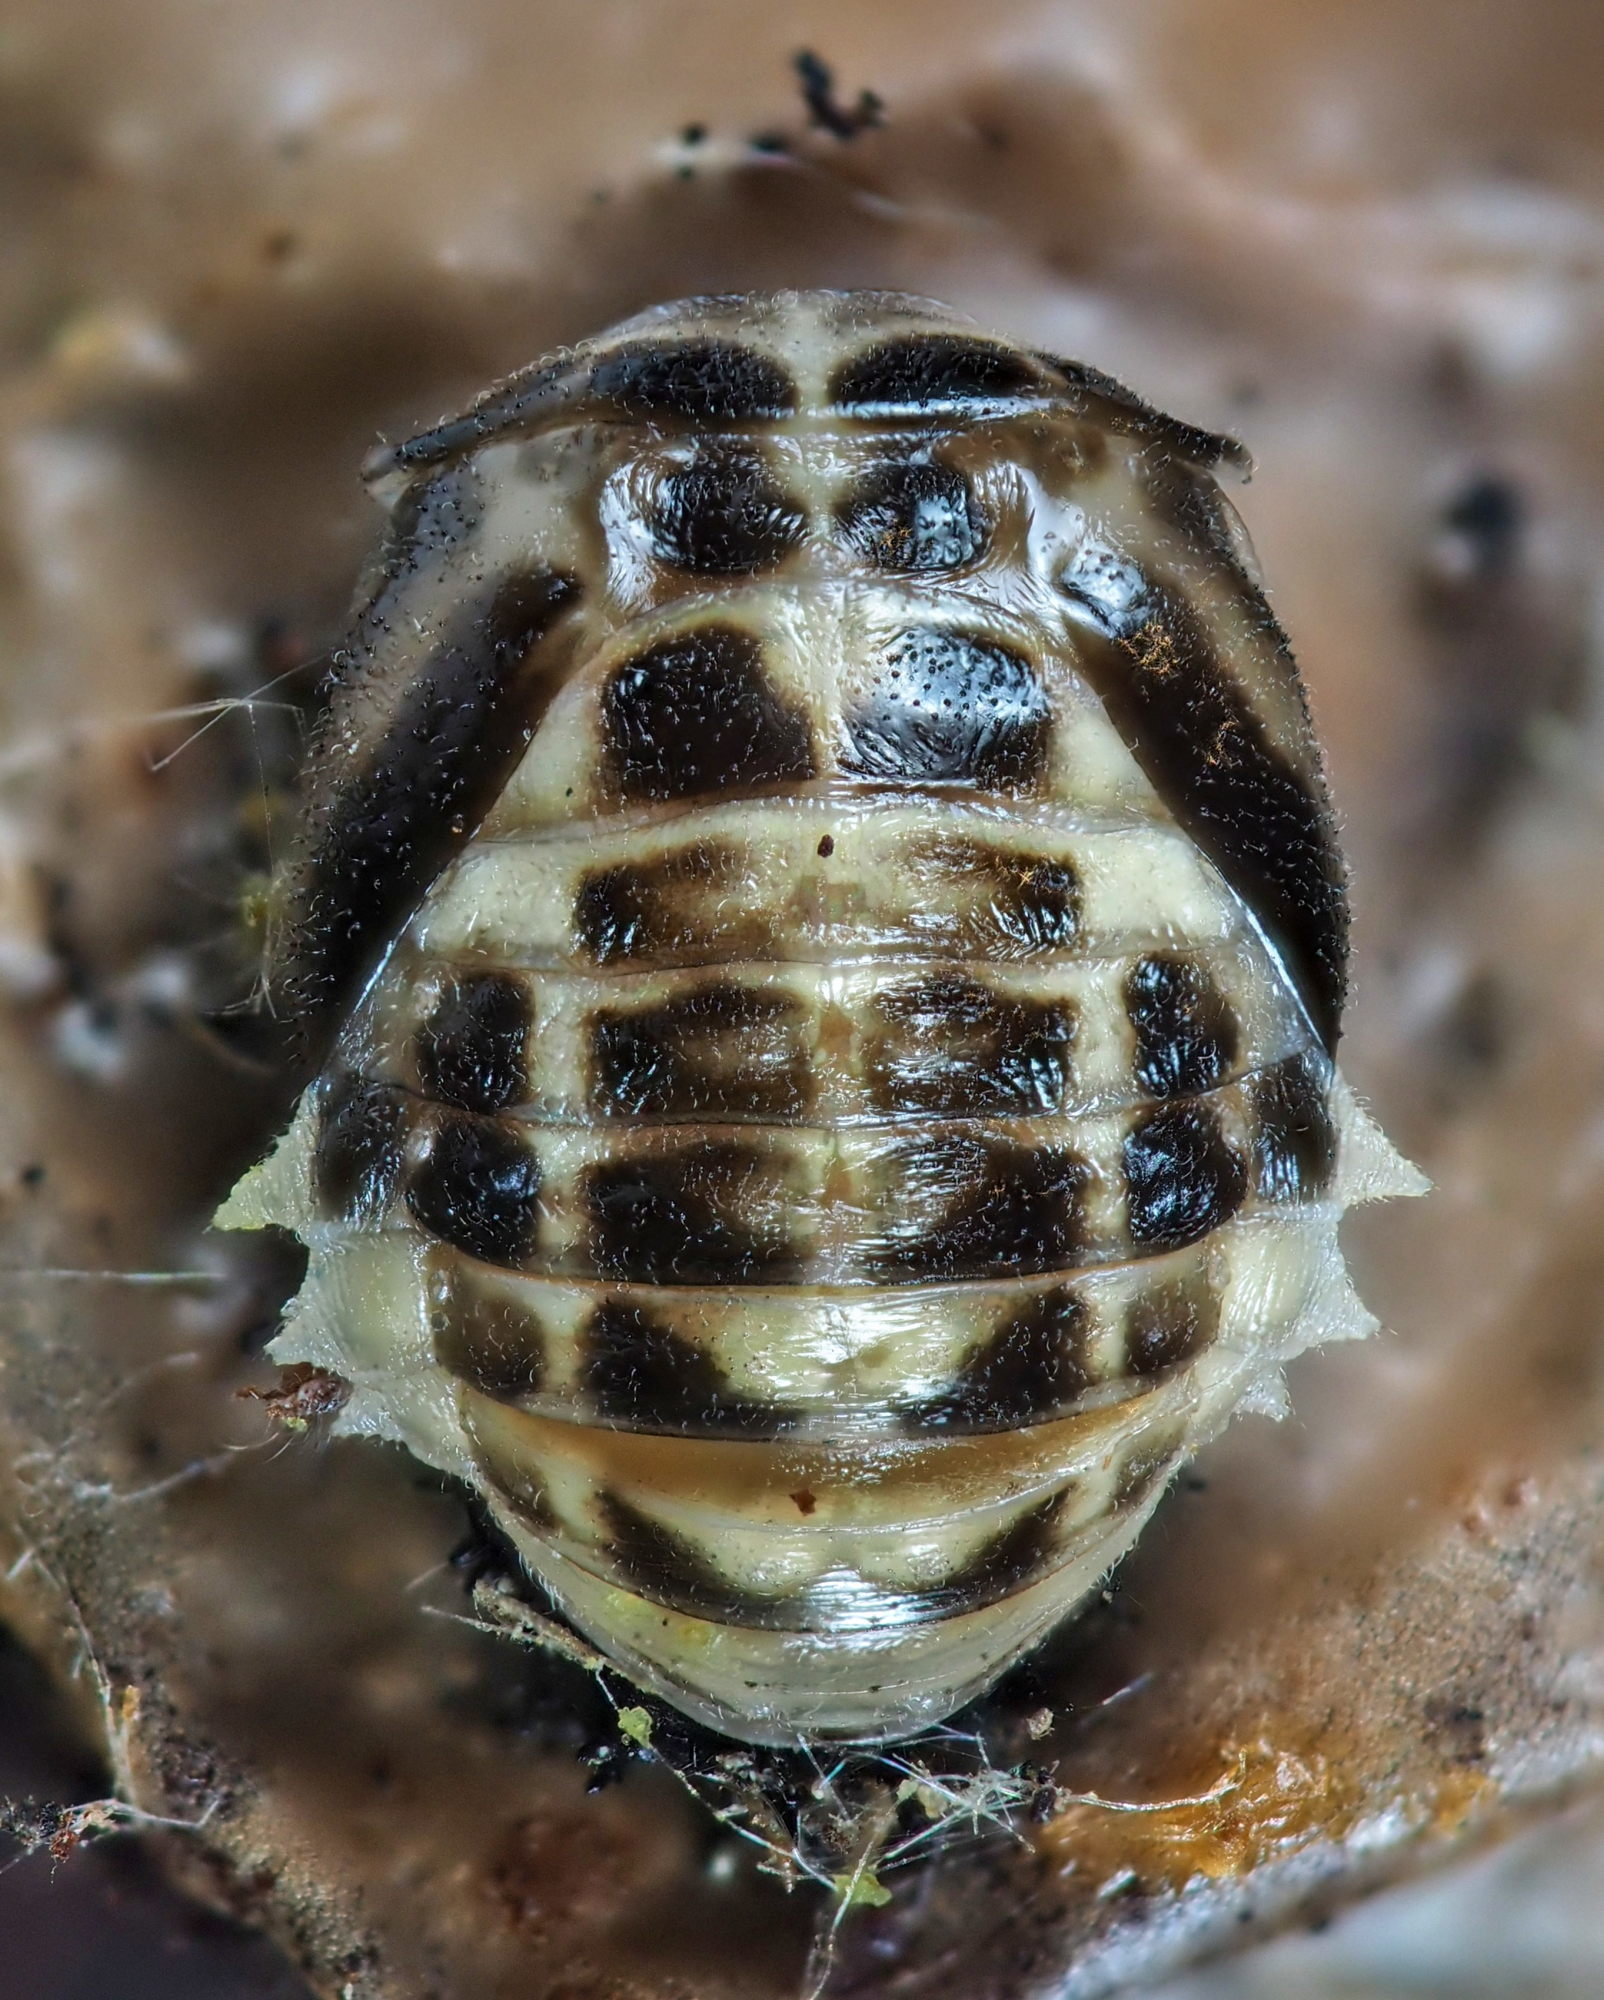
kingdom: Animalia
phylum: Arthropoda
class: Insecta
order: Coleoptera
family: Coccinellidae
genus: Calvia
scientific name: Calvia quatuordecimguttata
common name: Cream-spot ladybird
